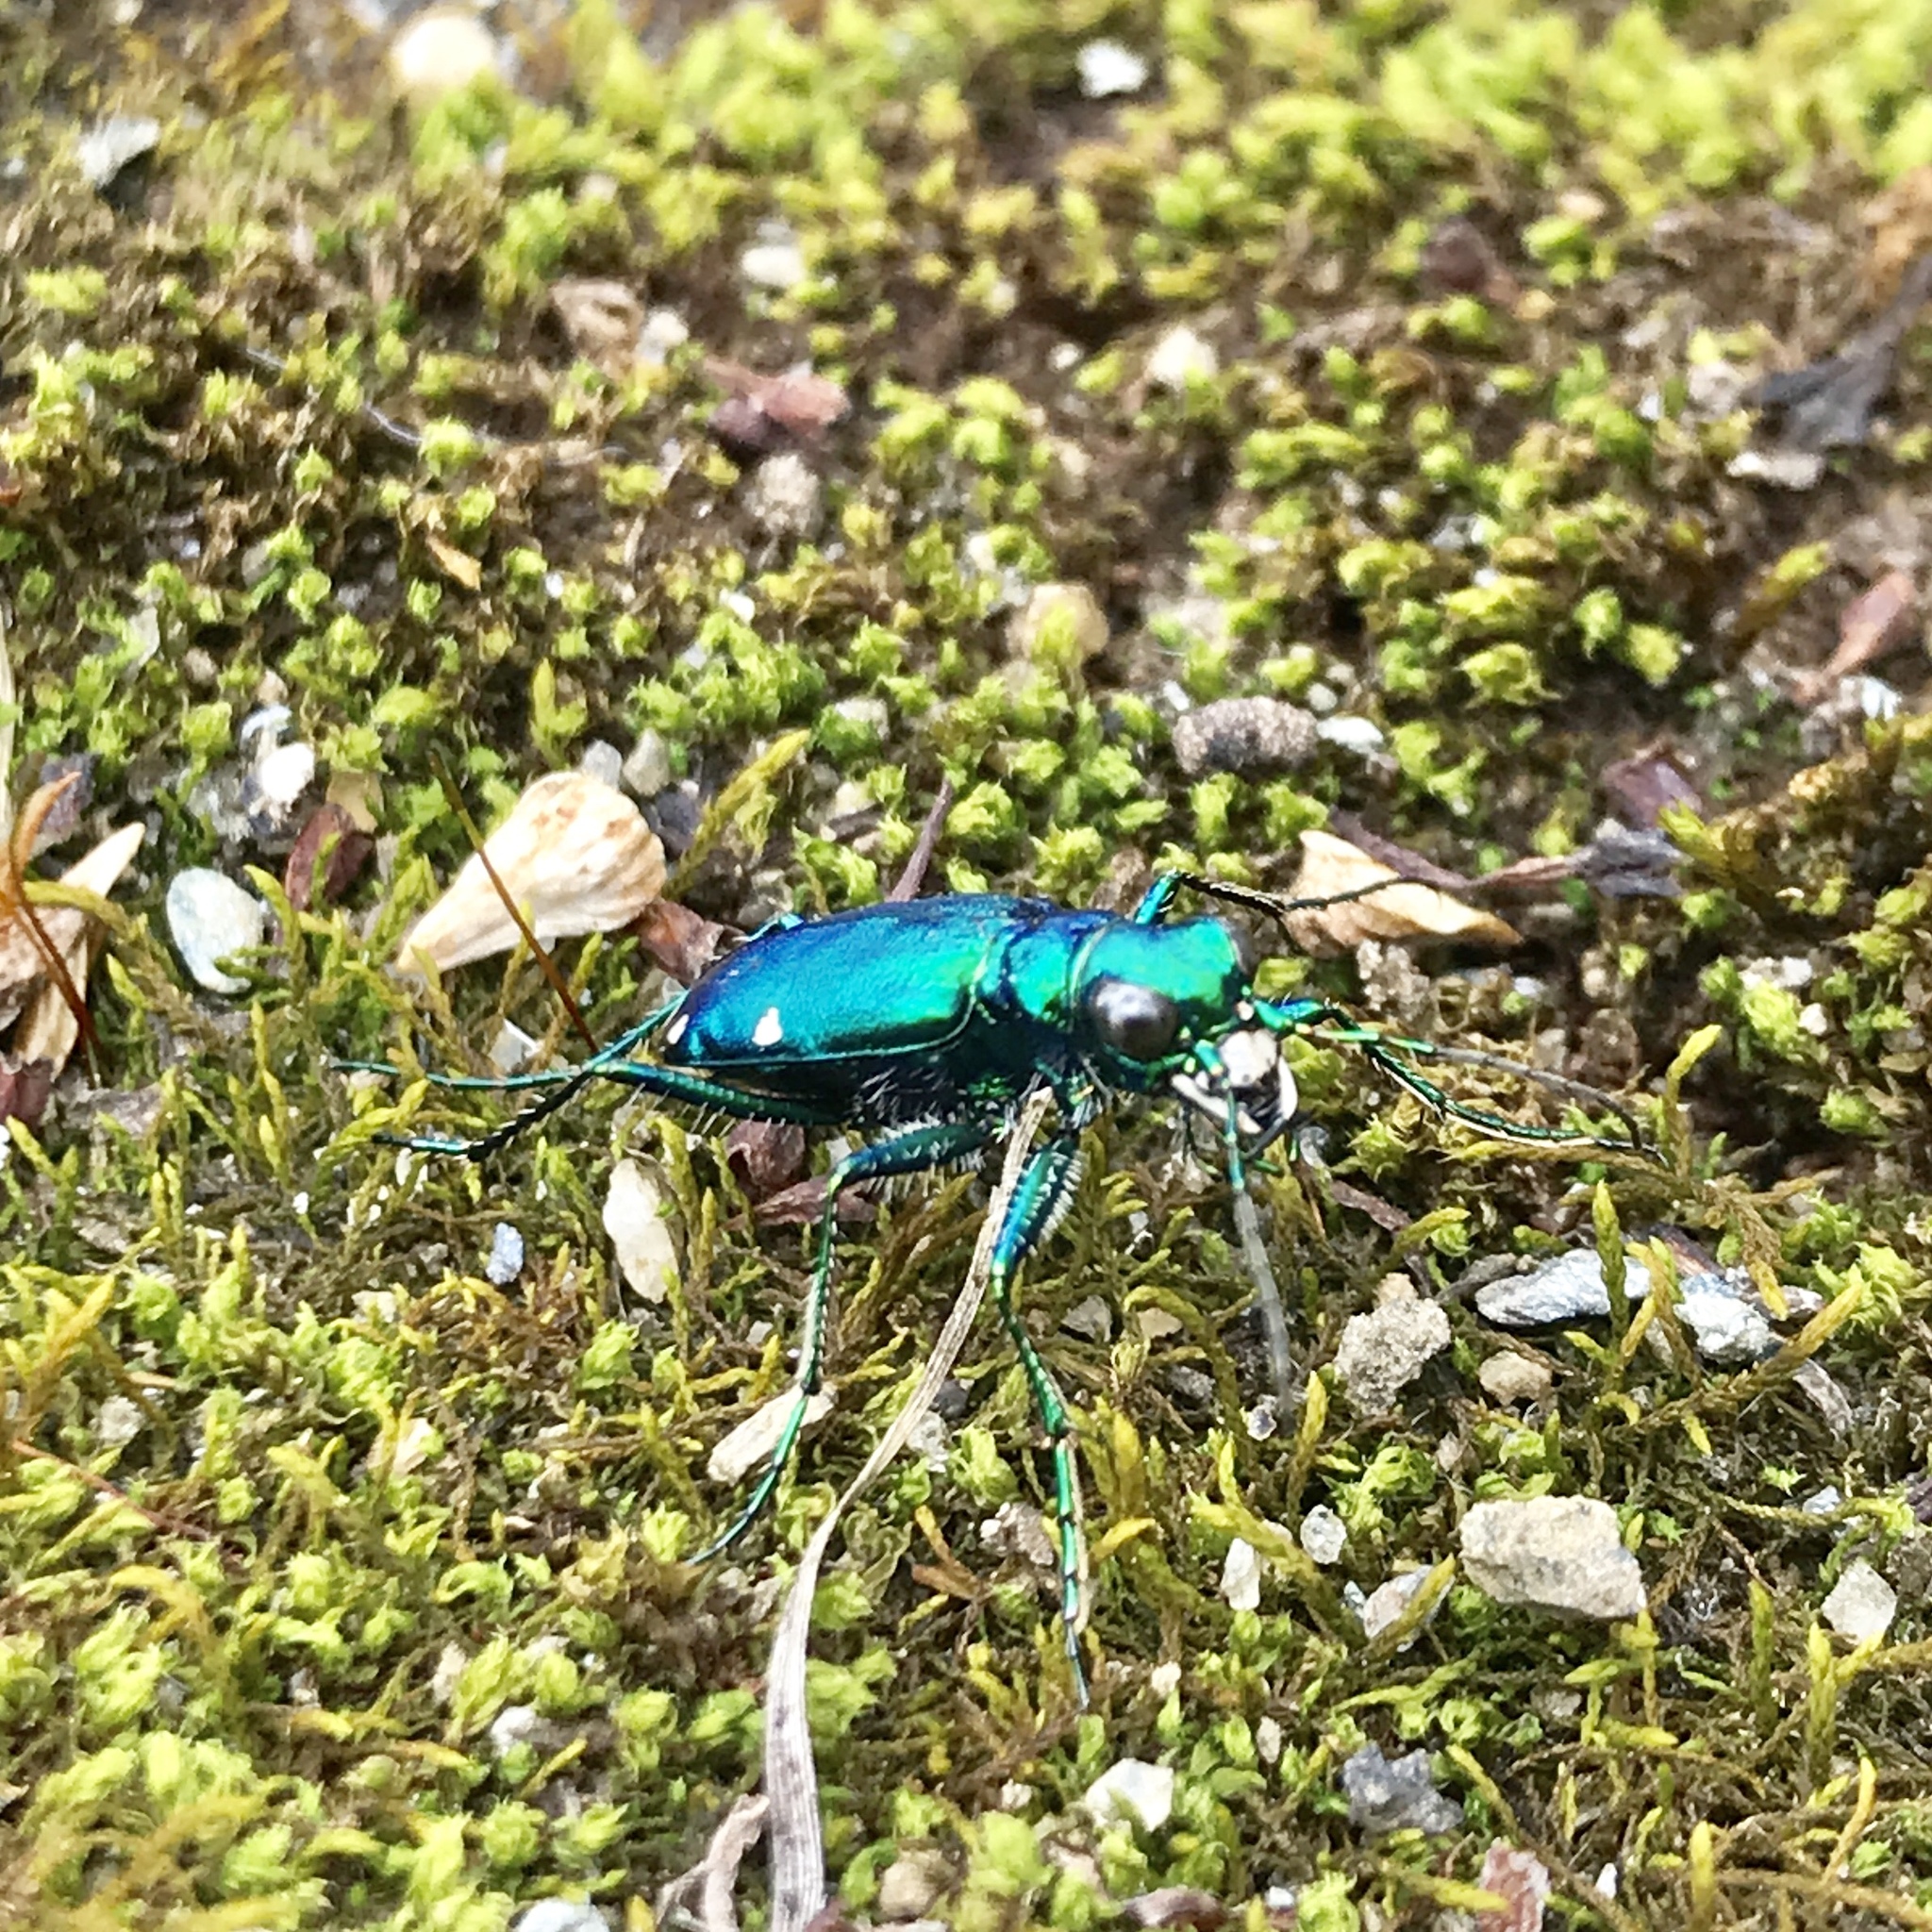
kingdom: Animalia
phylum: Arthropoda
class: Insecta
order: Coleoptera
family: Carabidae
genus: Cicindela
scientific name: Cicindela sexguttata
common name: Six-spotted tiger beetle
